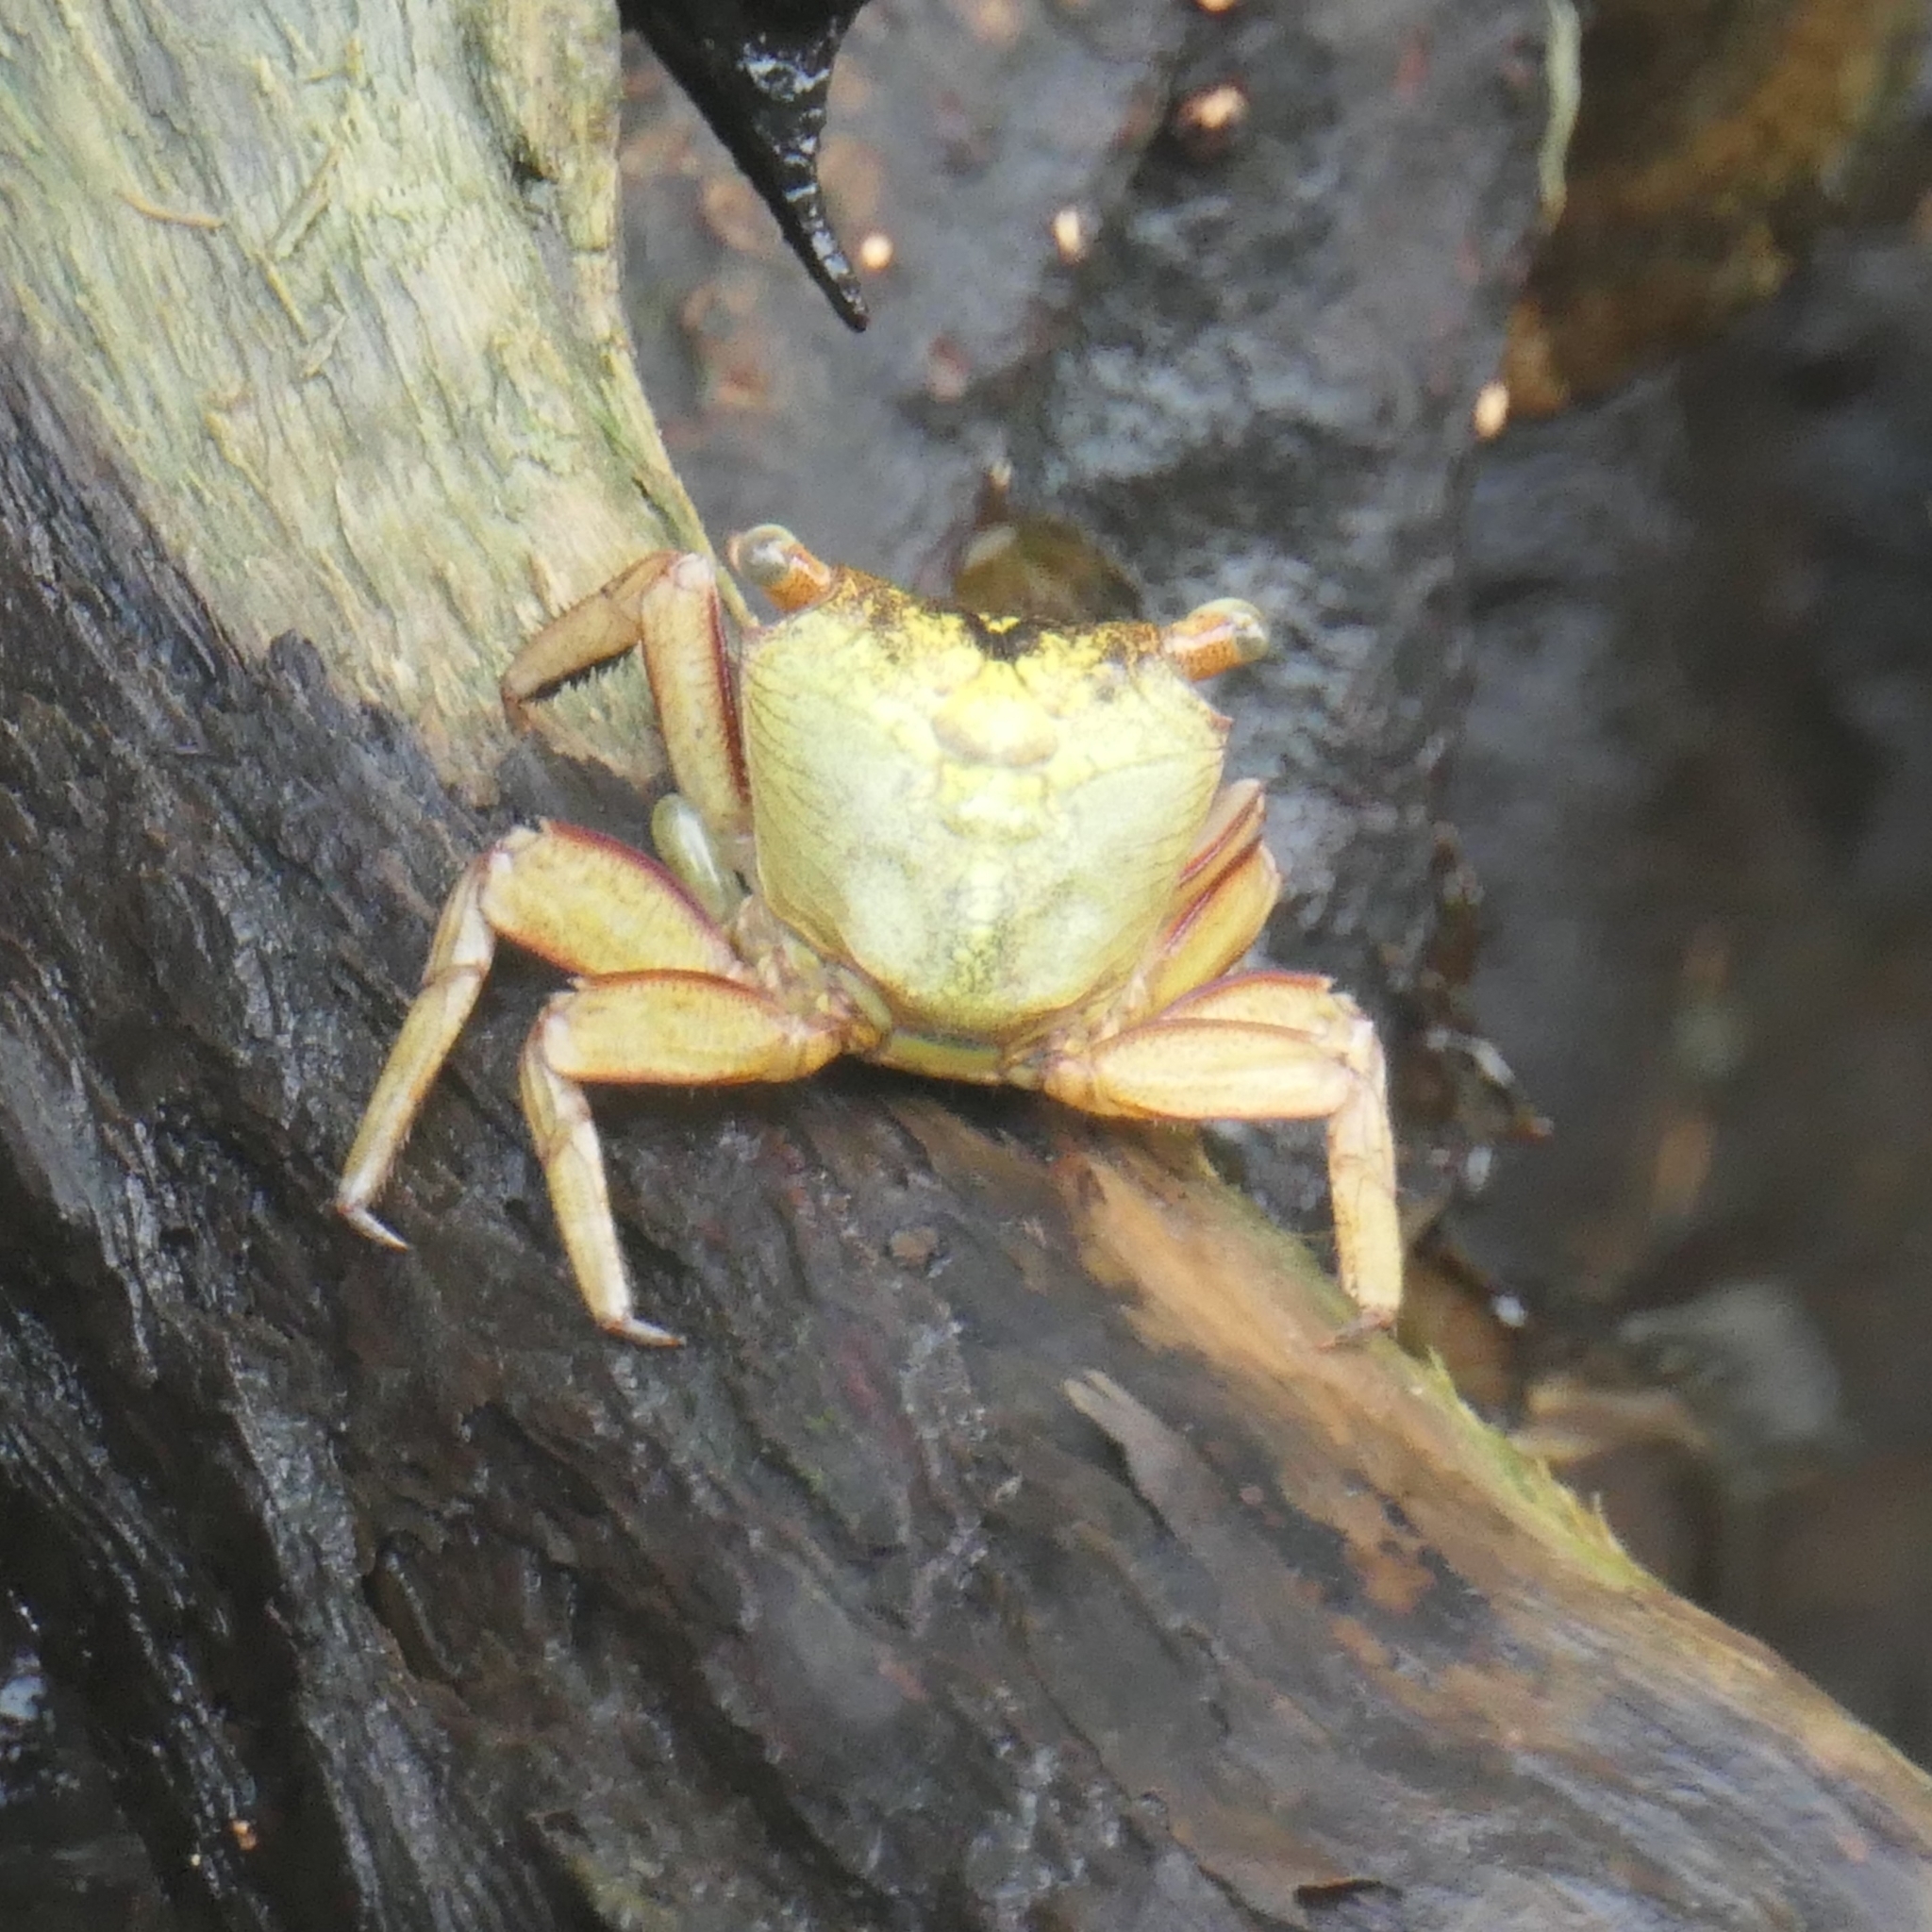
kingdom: Animalia
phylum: Arthropoda
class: Malacostraca
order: Decapoda
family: Sesarmidae
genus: Aratus
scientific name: Aratus pisonii
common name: Mangrove crab
